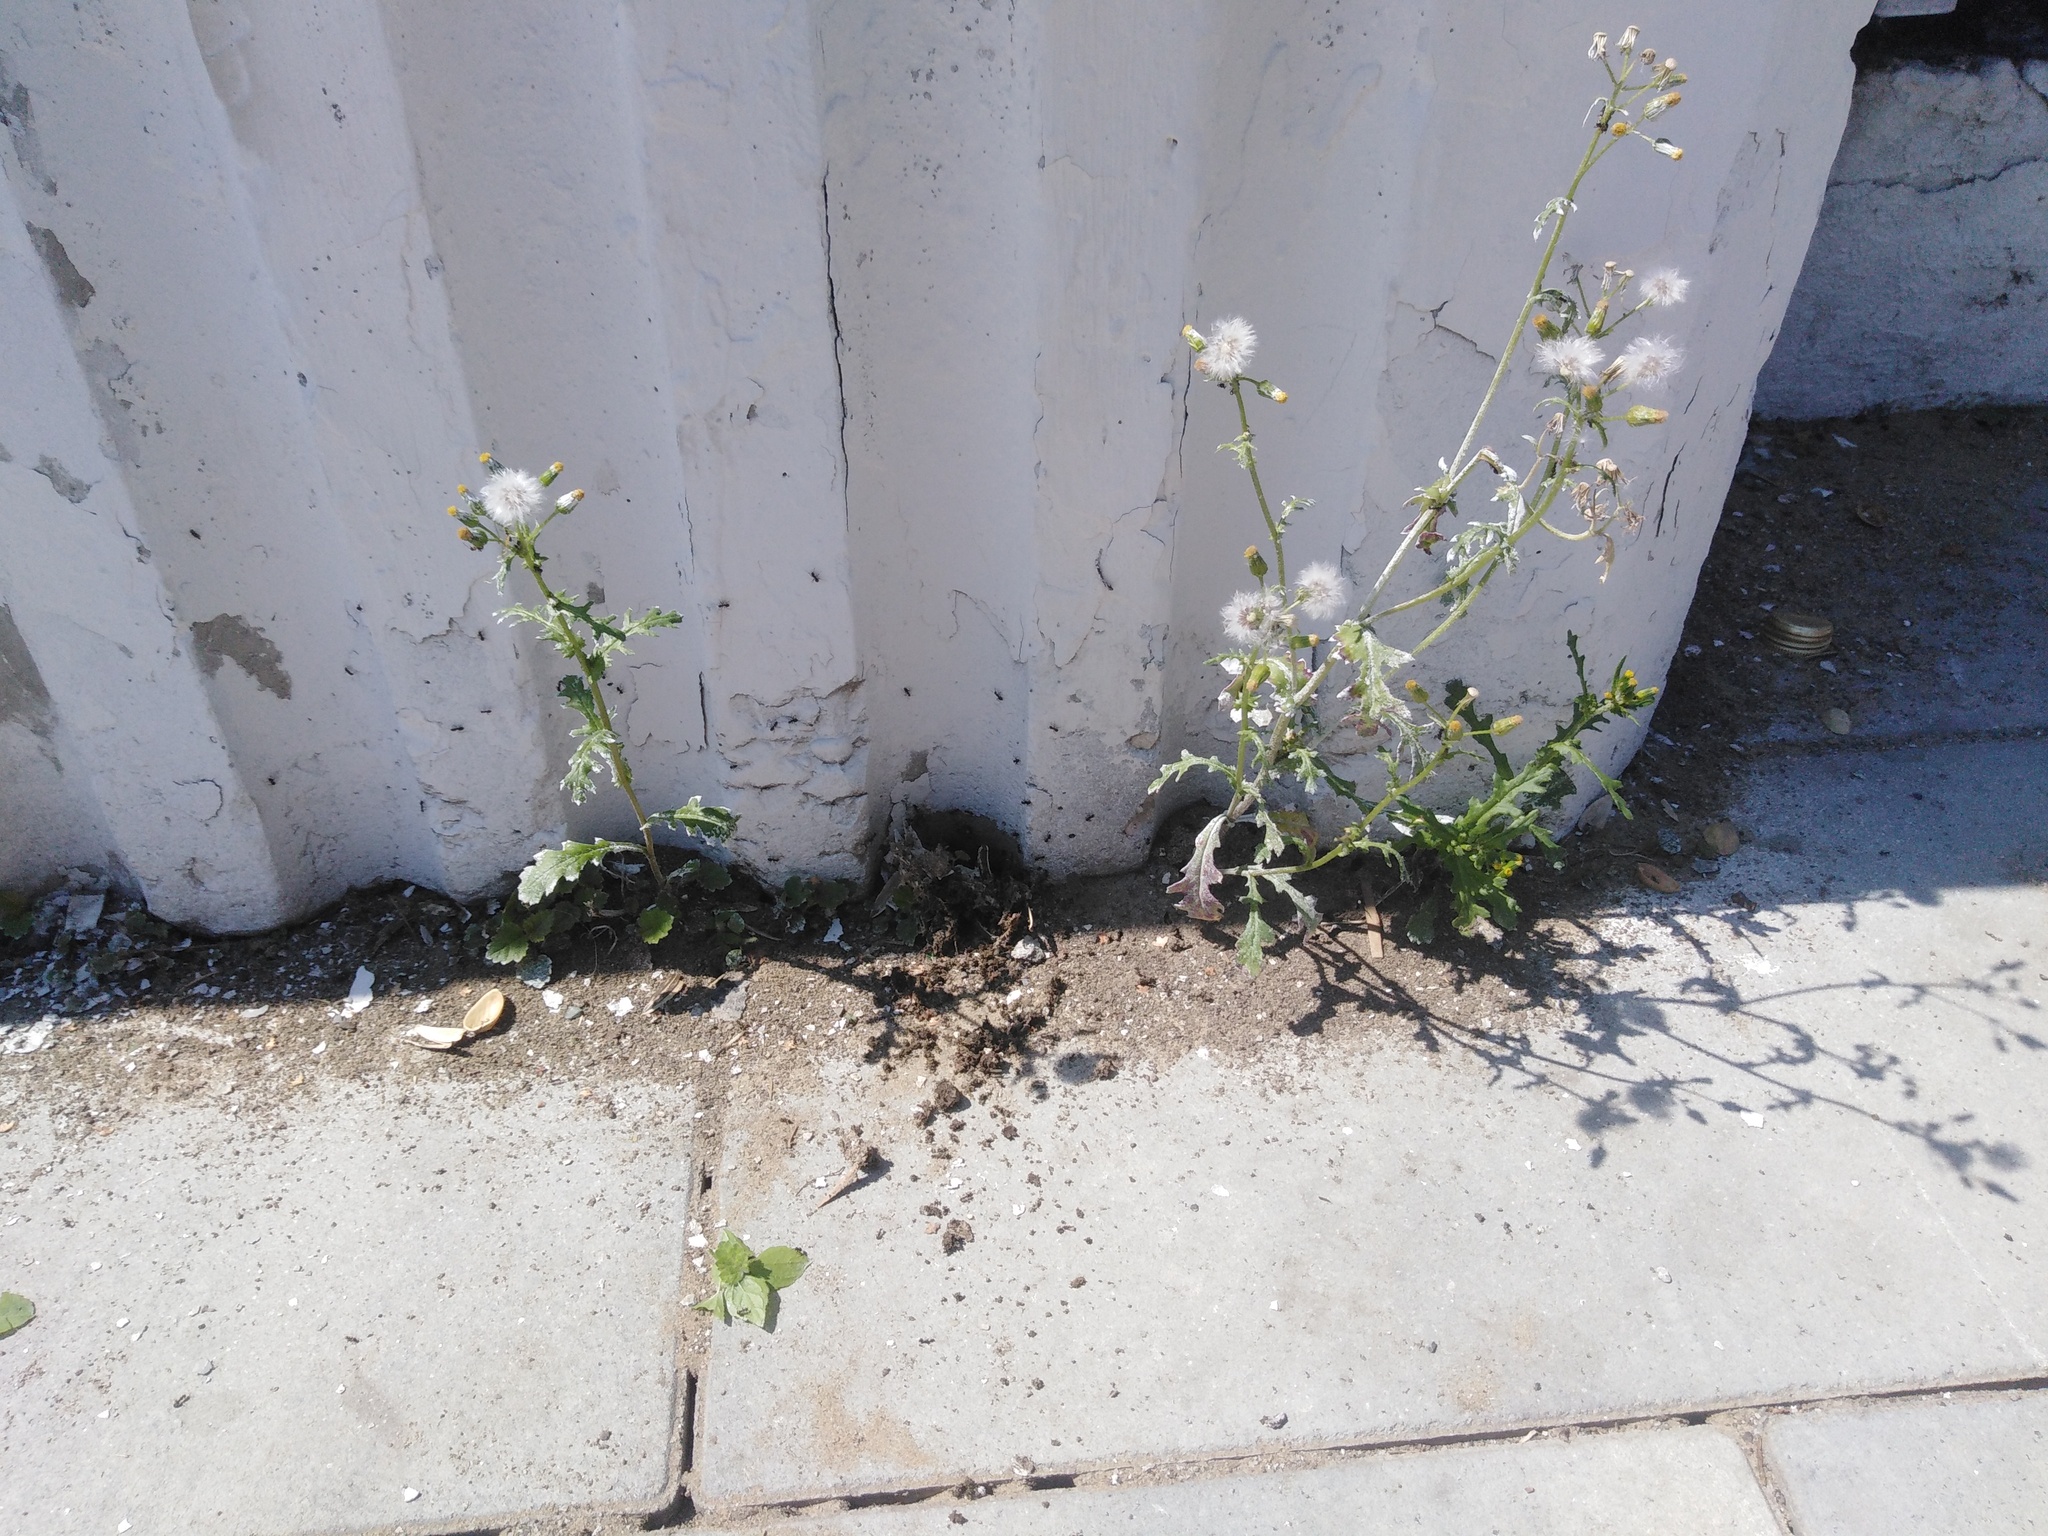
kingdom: Plantae
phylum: Tracheophyta
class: Magnoliopsida
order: Asterales
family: Asteraceae
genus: Senecio
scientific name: Senecio vulgaris
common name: Old-man-in-the-spring
